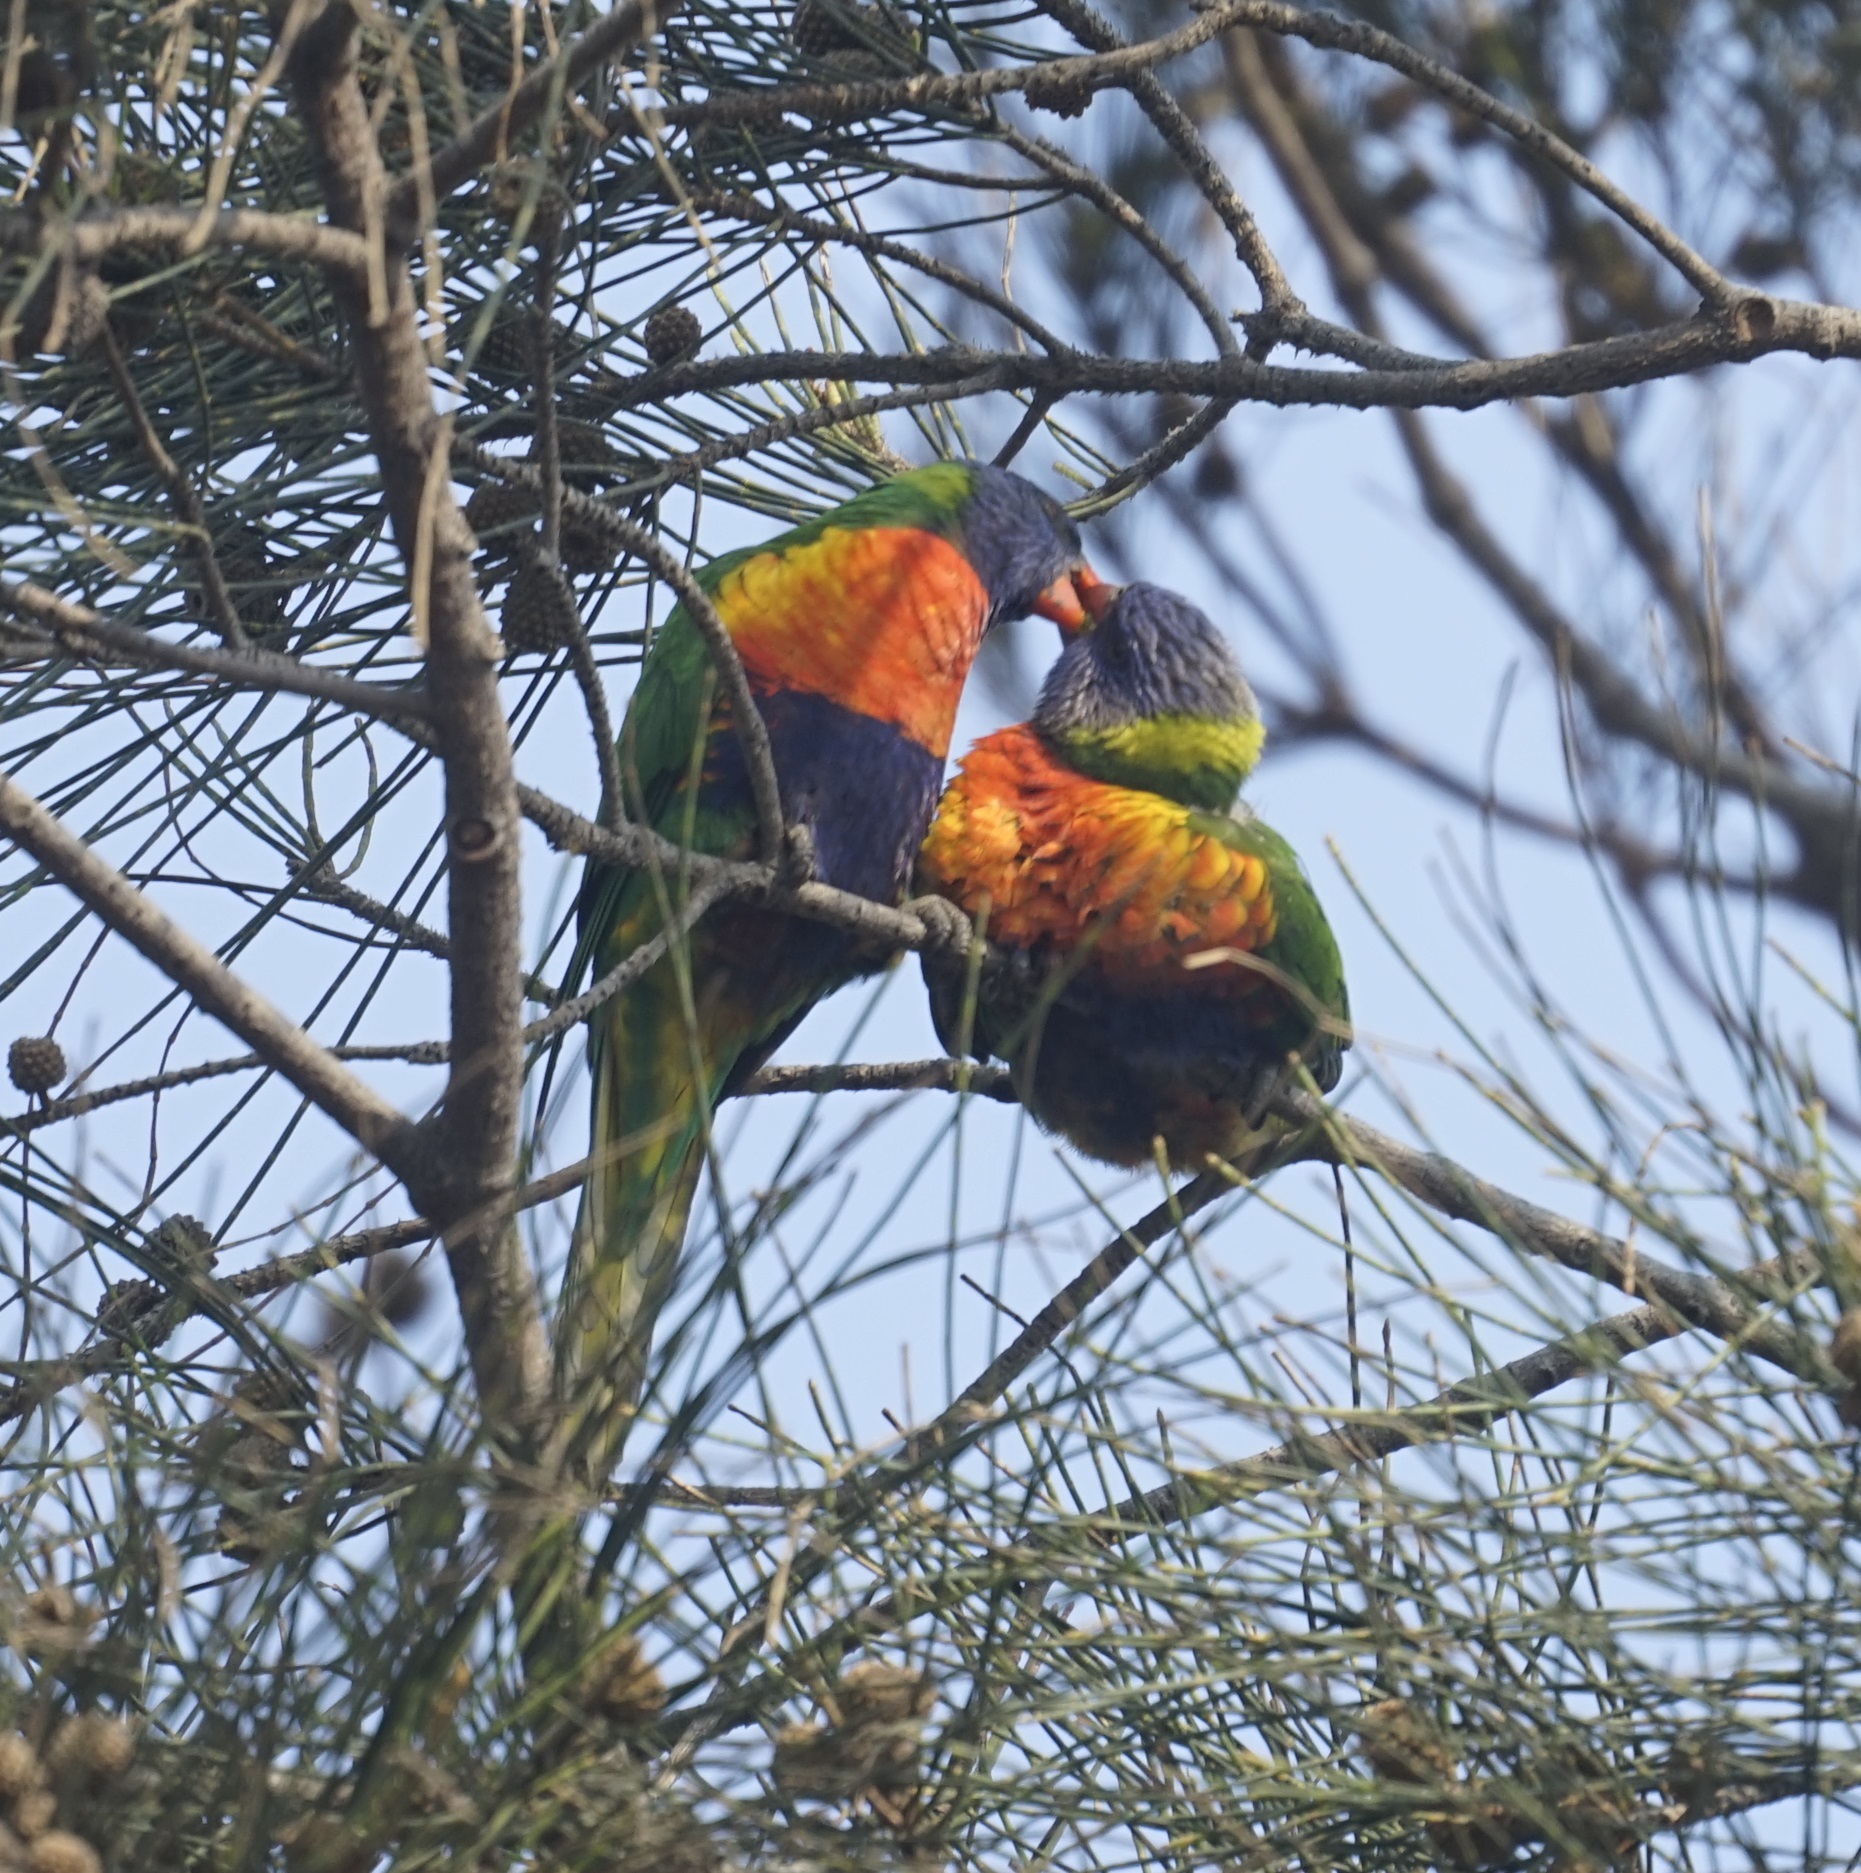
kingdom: Animalia
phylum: Chordata
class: Aves
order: Psittaciformes
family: Psittacidae
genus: Trichoglossus
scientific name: Trichoglossus haematodus
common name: Coconut lorikeet
